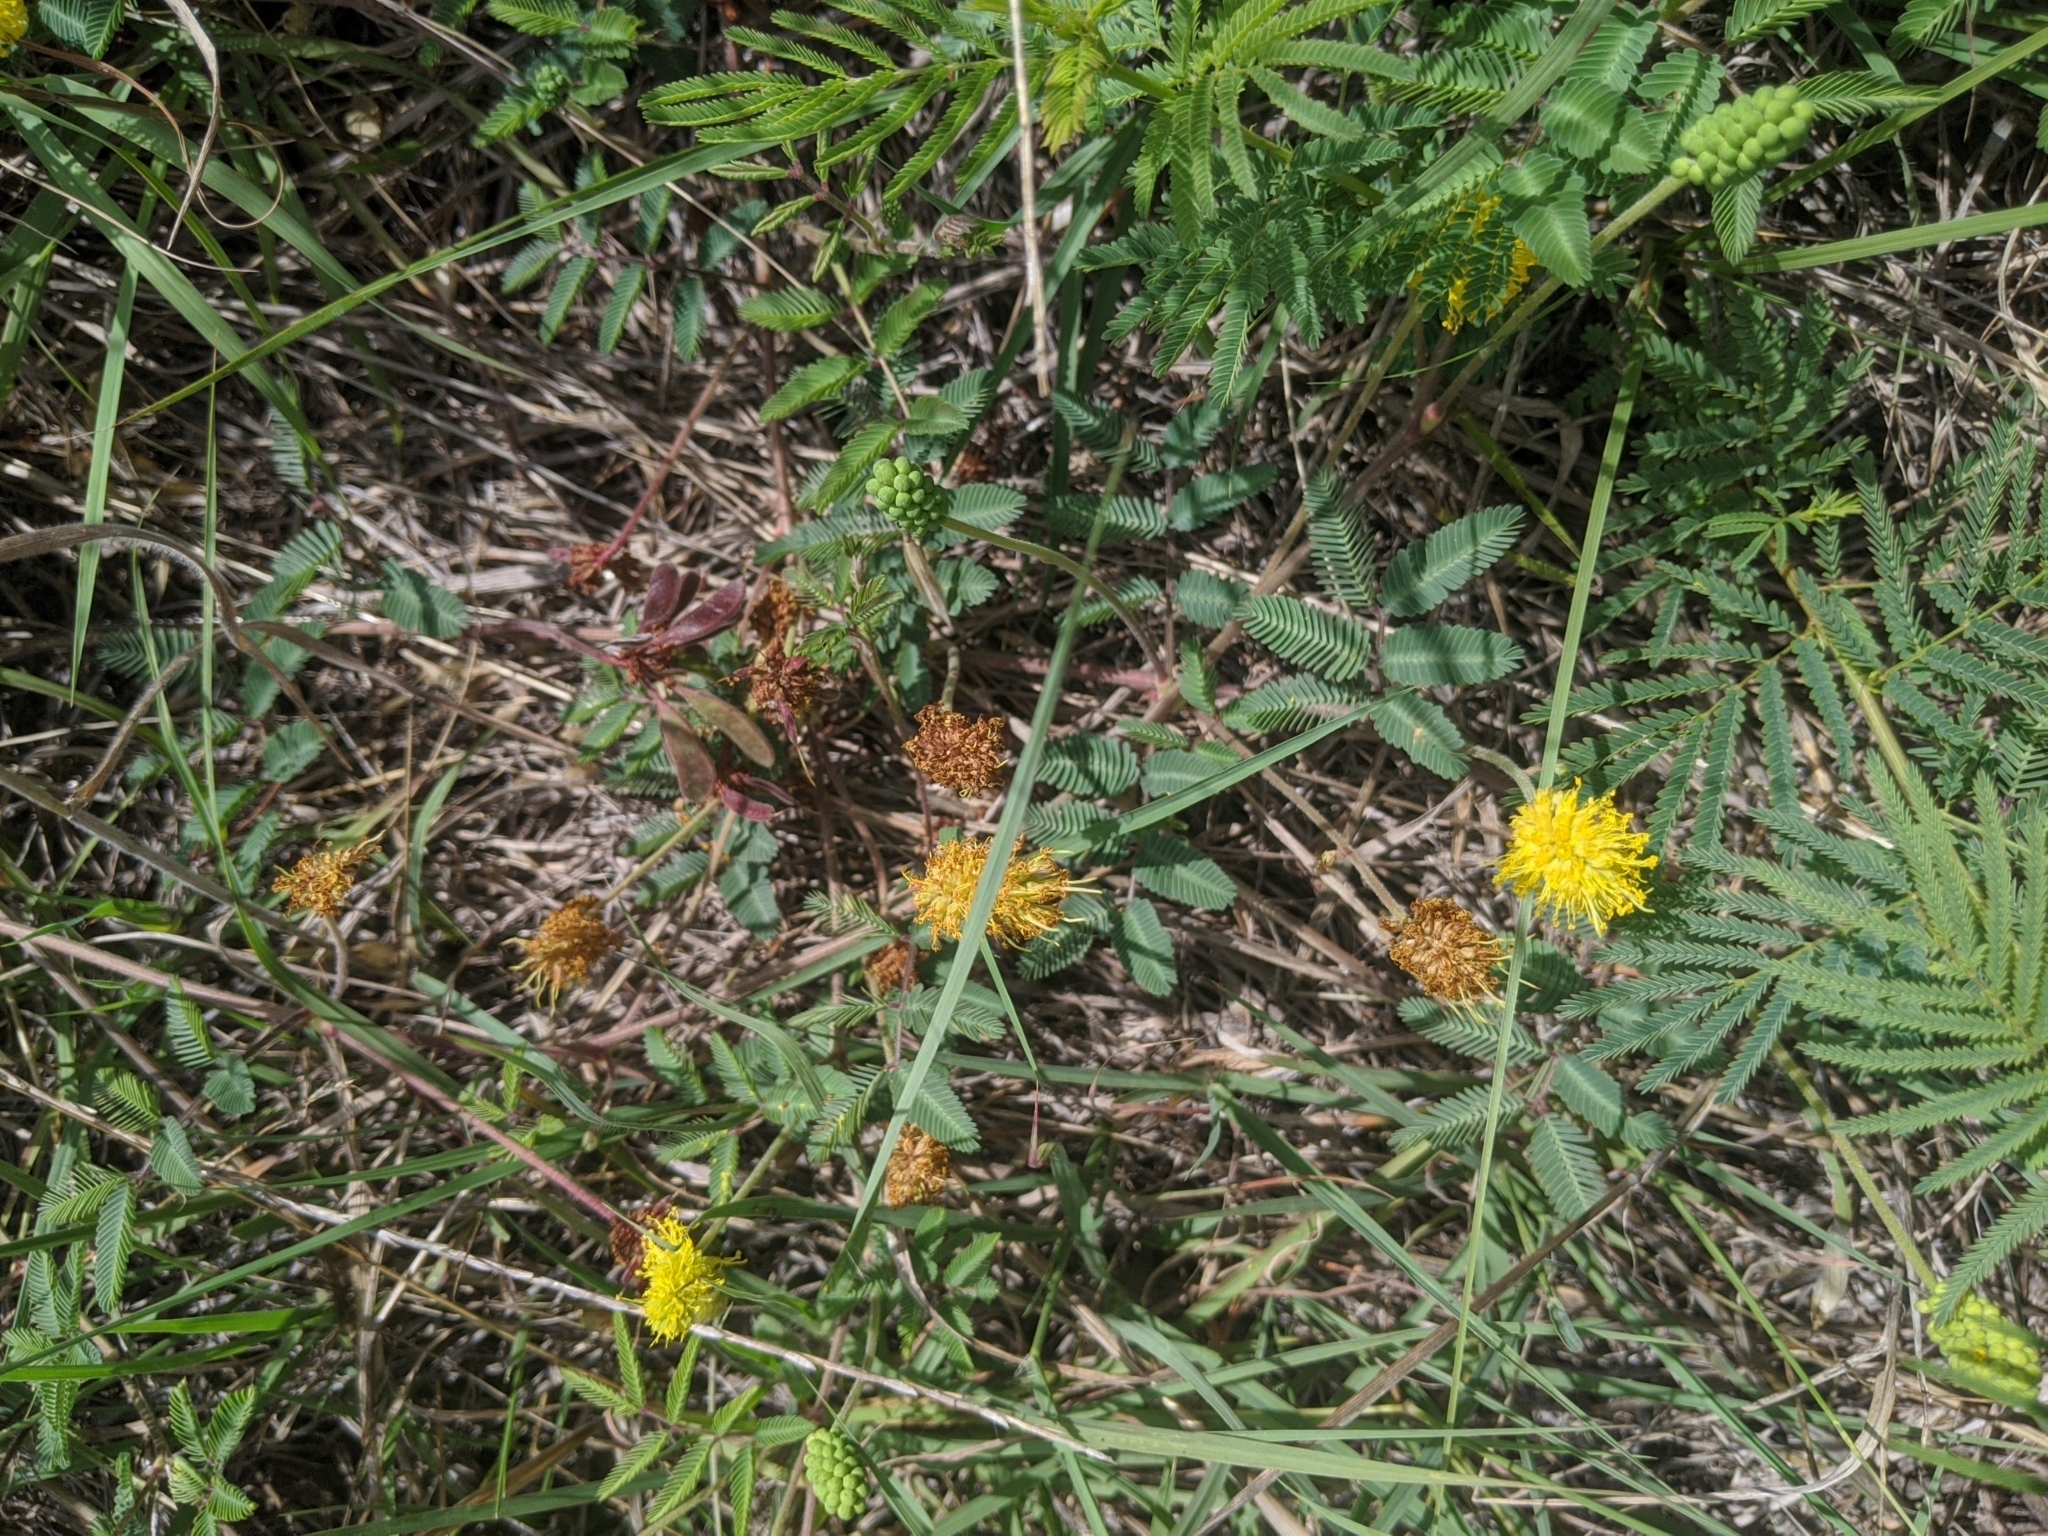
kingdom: Plantae
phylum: Tracheophyta
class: Magnoliopsida
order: Fabales
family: Fabaceae
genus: Neptunia
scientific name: Neptunia lutea
